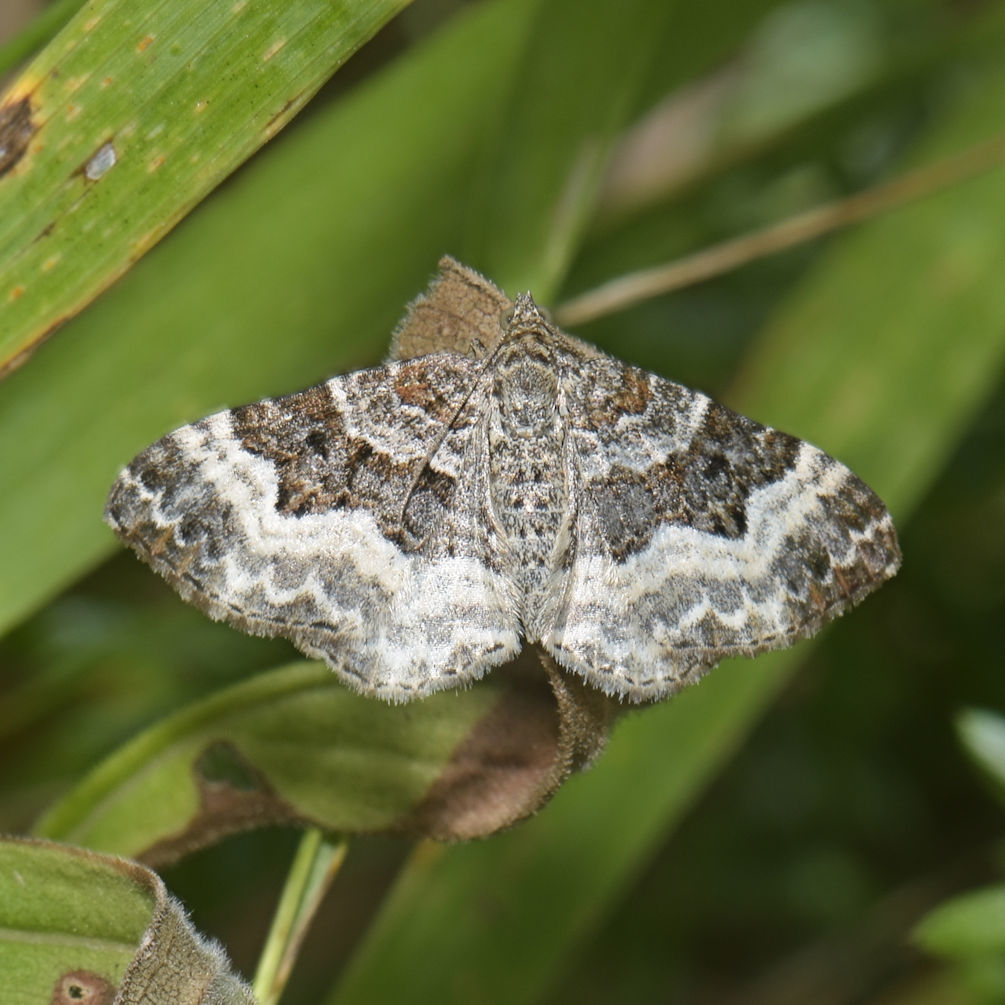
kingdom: Animalia
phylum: Arthropoda
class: Insecta
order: Lepidoptera
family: Geometridae
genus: Epirrhoe
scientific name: Epirrhoe alternata
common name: Common carpet
